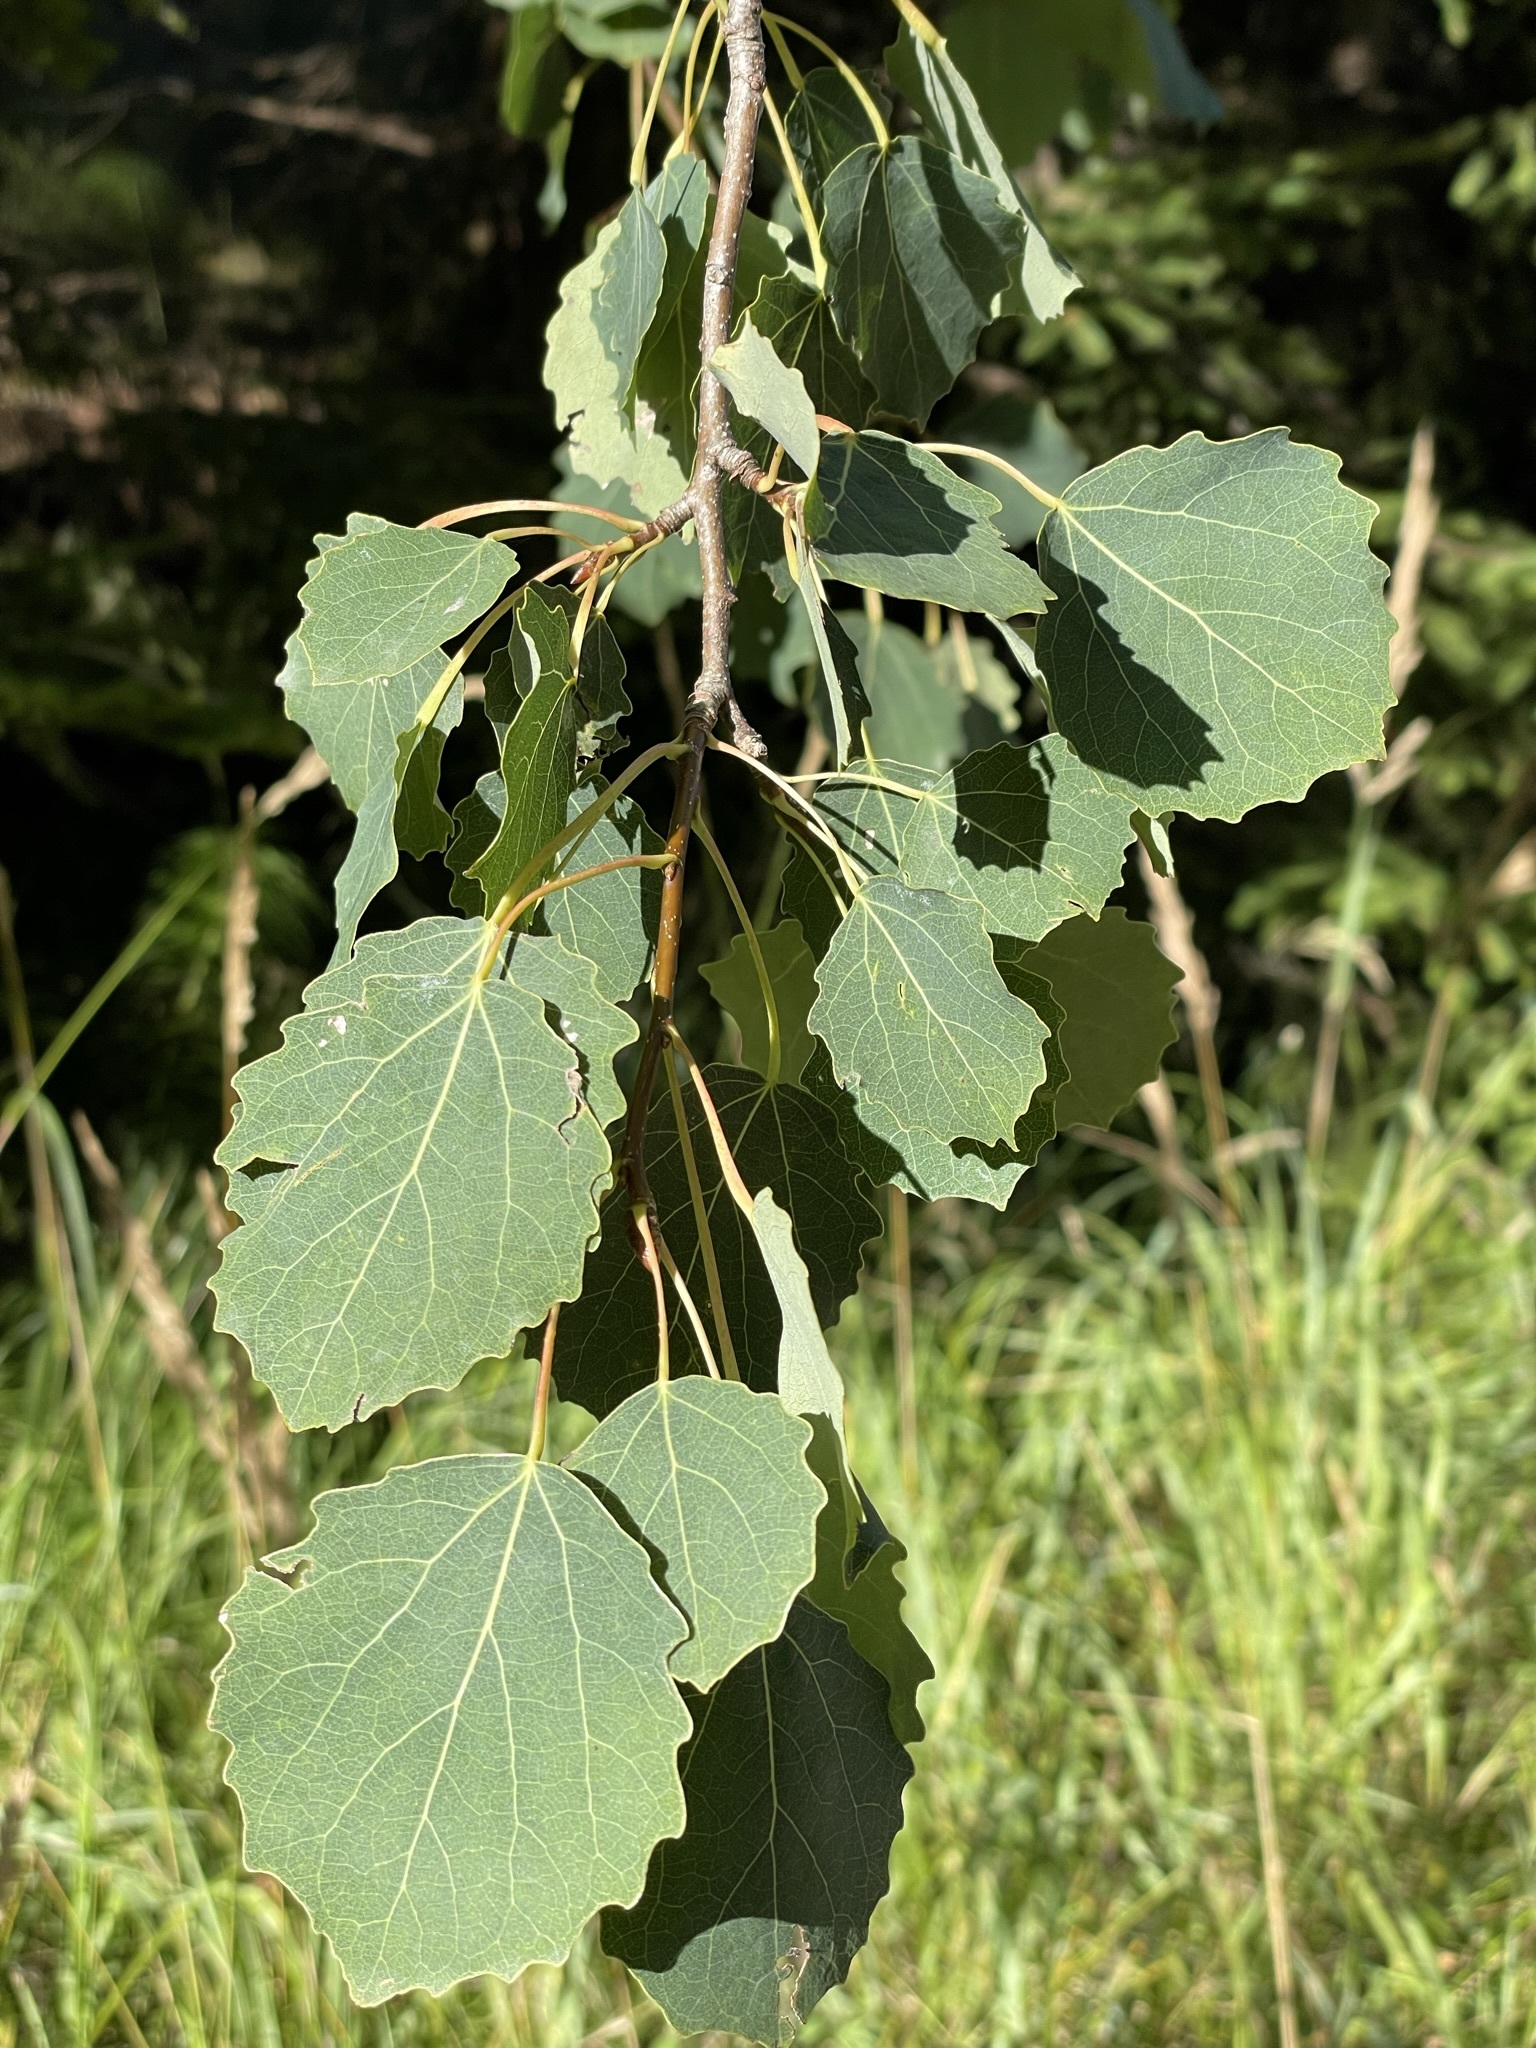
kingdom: Plantae
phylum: Tracheophyta
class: Magnoliopsida
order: Malpighiales
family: Salicaceae
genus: Populus
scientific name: Populus tremula
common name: European aspen
